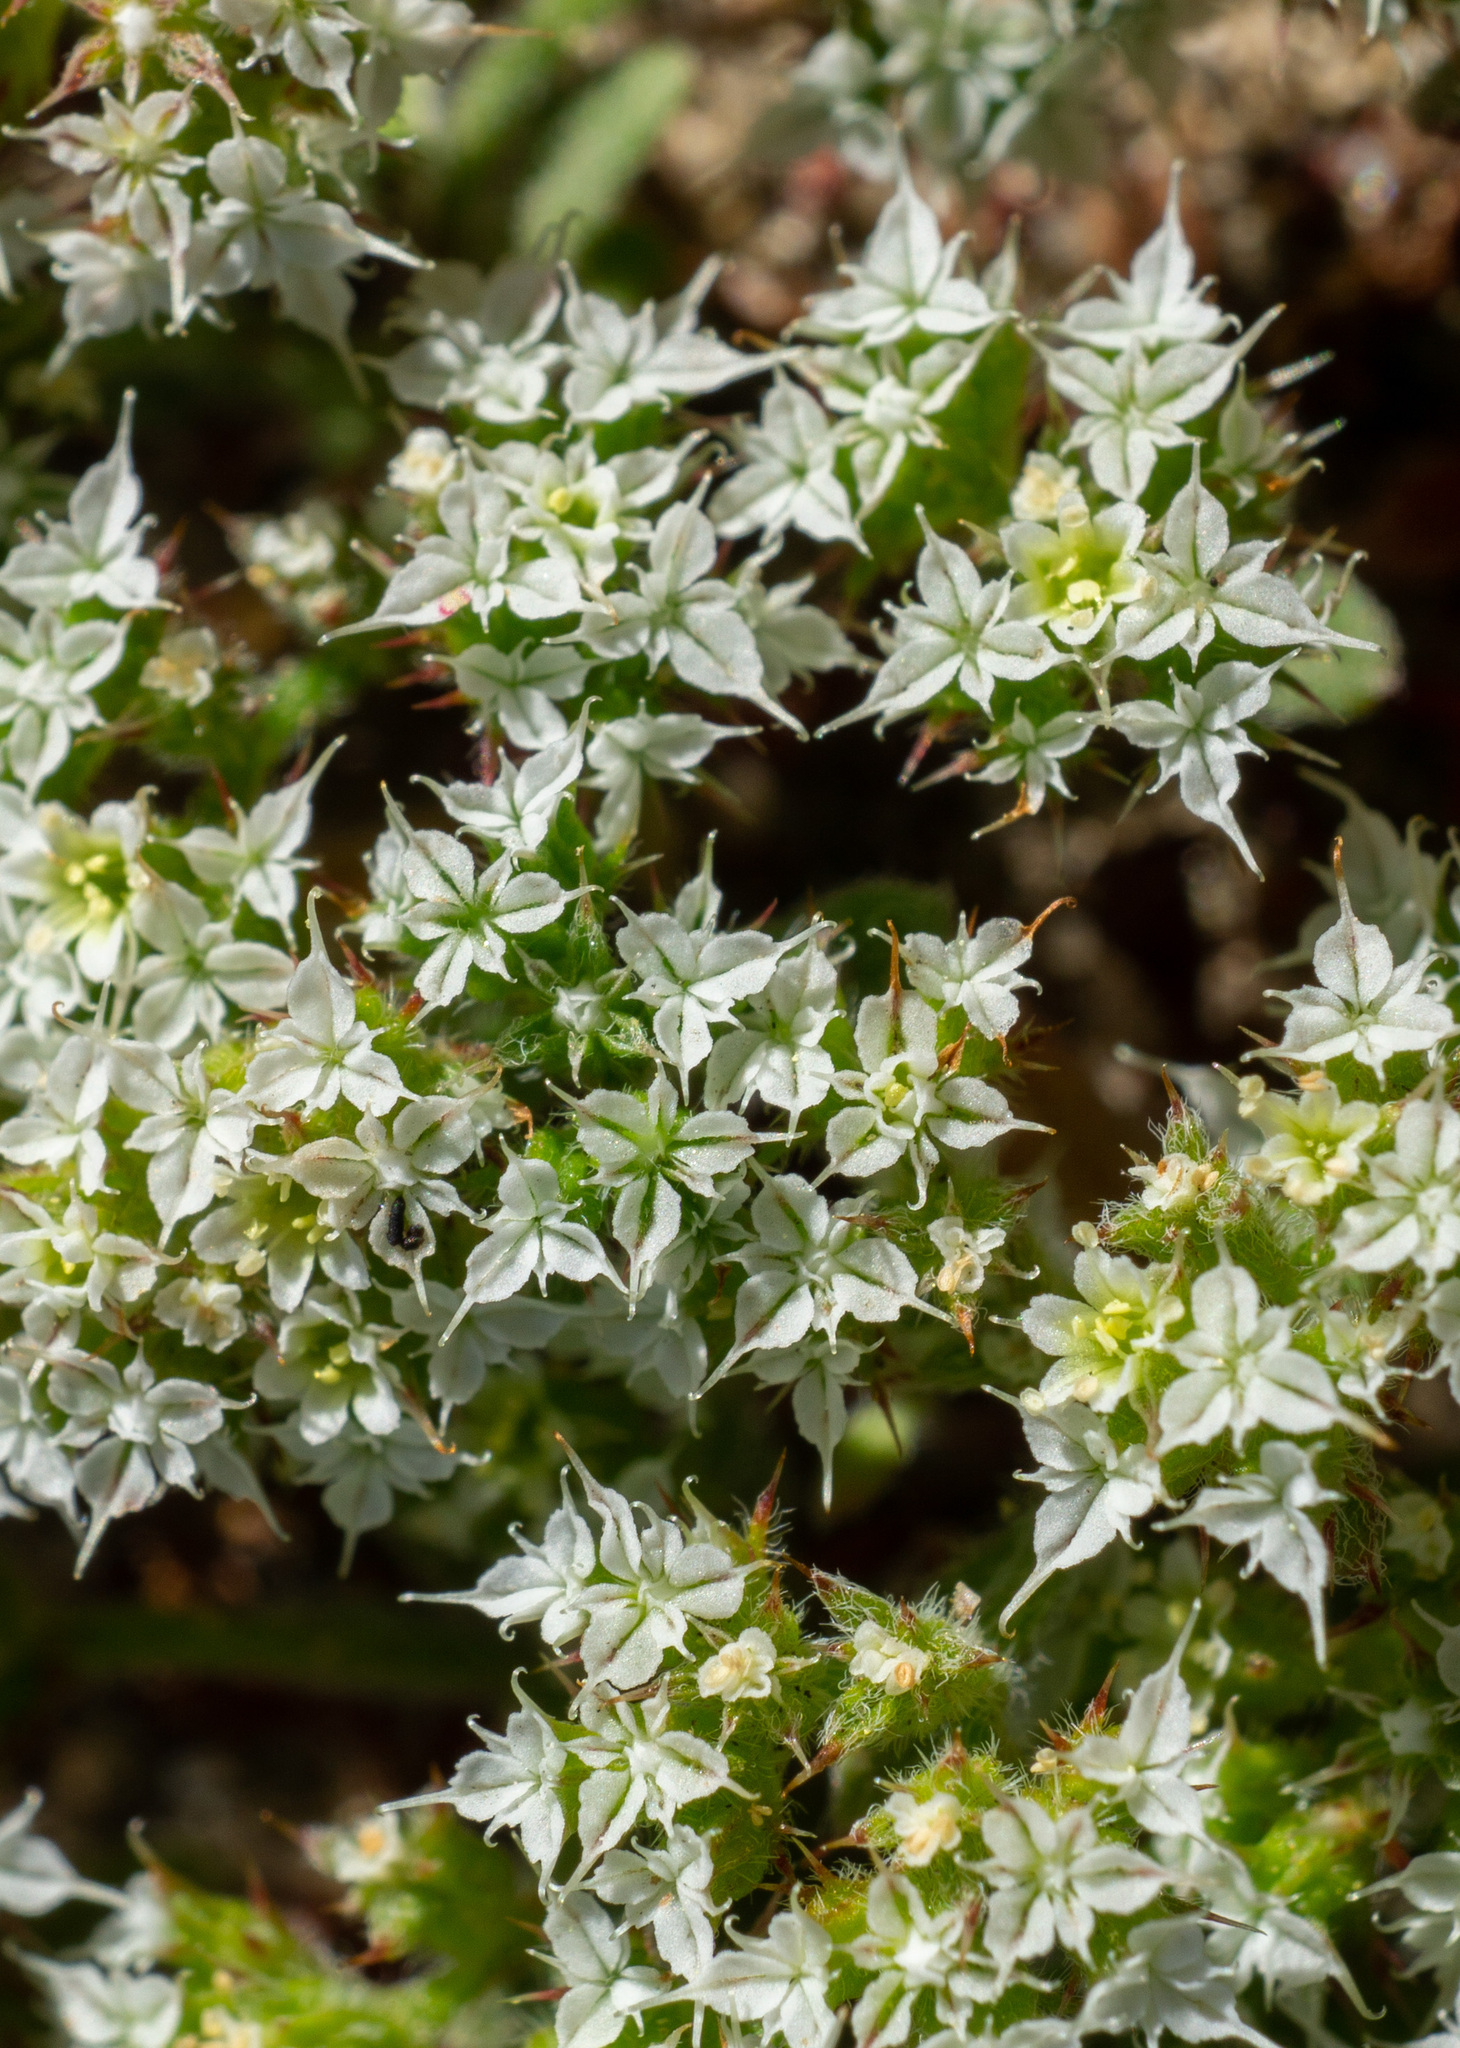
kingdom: Plantae
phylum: Tracheophyta
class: Magnoliopsida
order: Caryophyllales
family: Polygonaceae
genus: Chorizanthe
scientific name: Chorizanthe diffusa
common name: Diffuse spineflower
